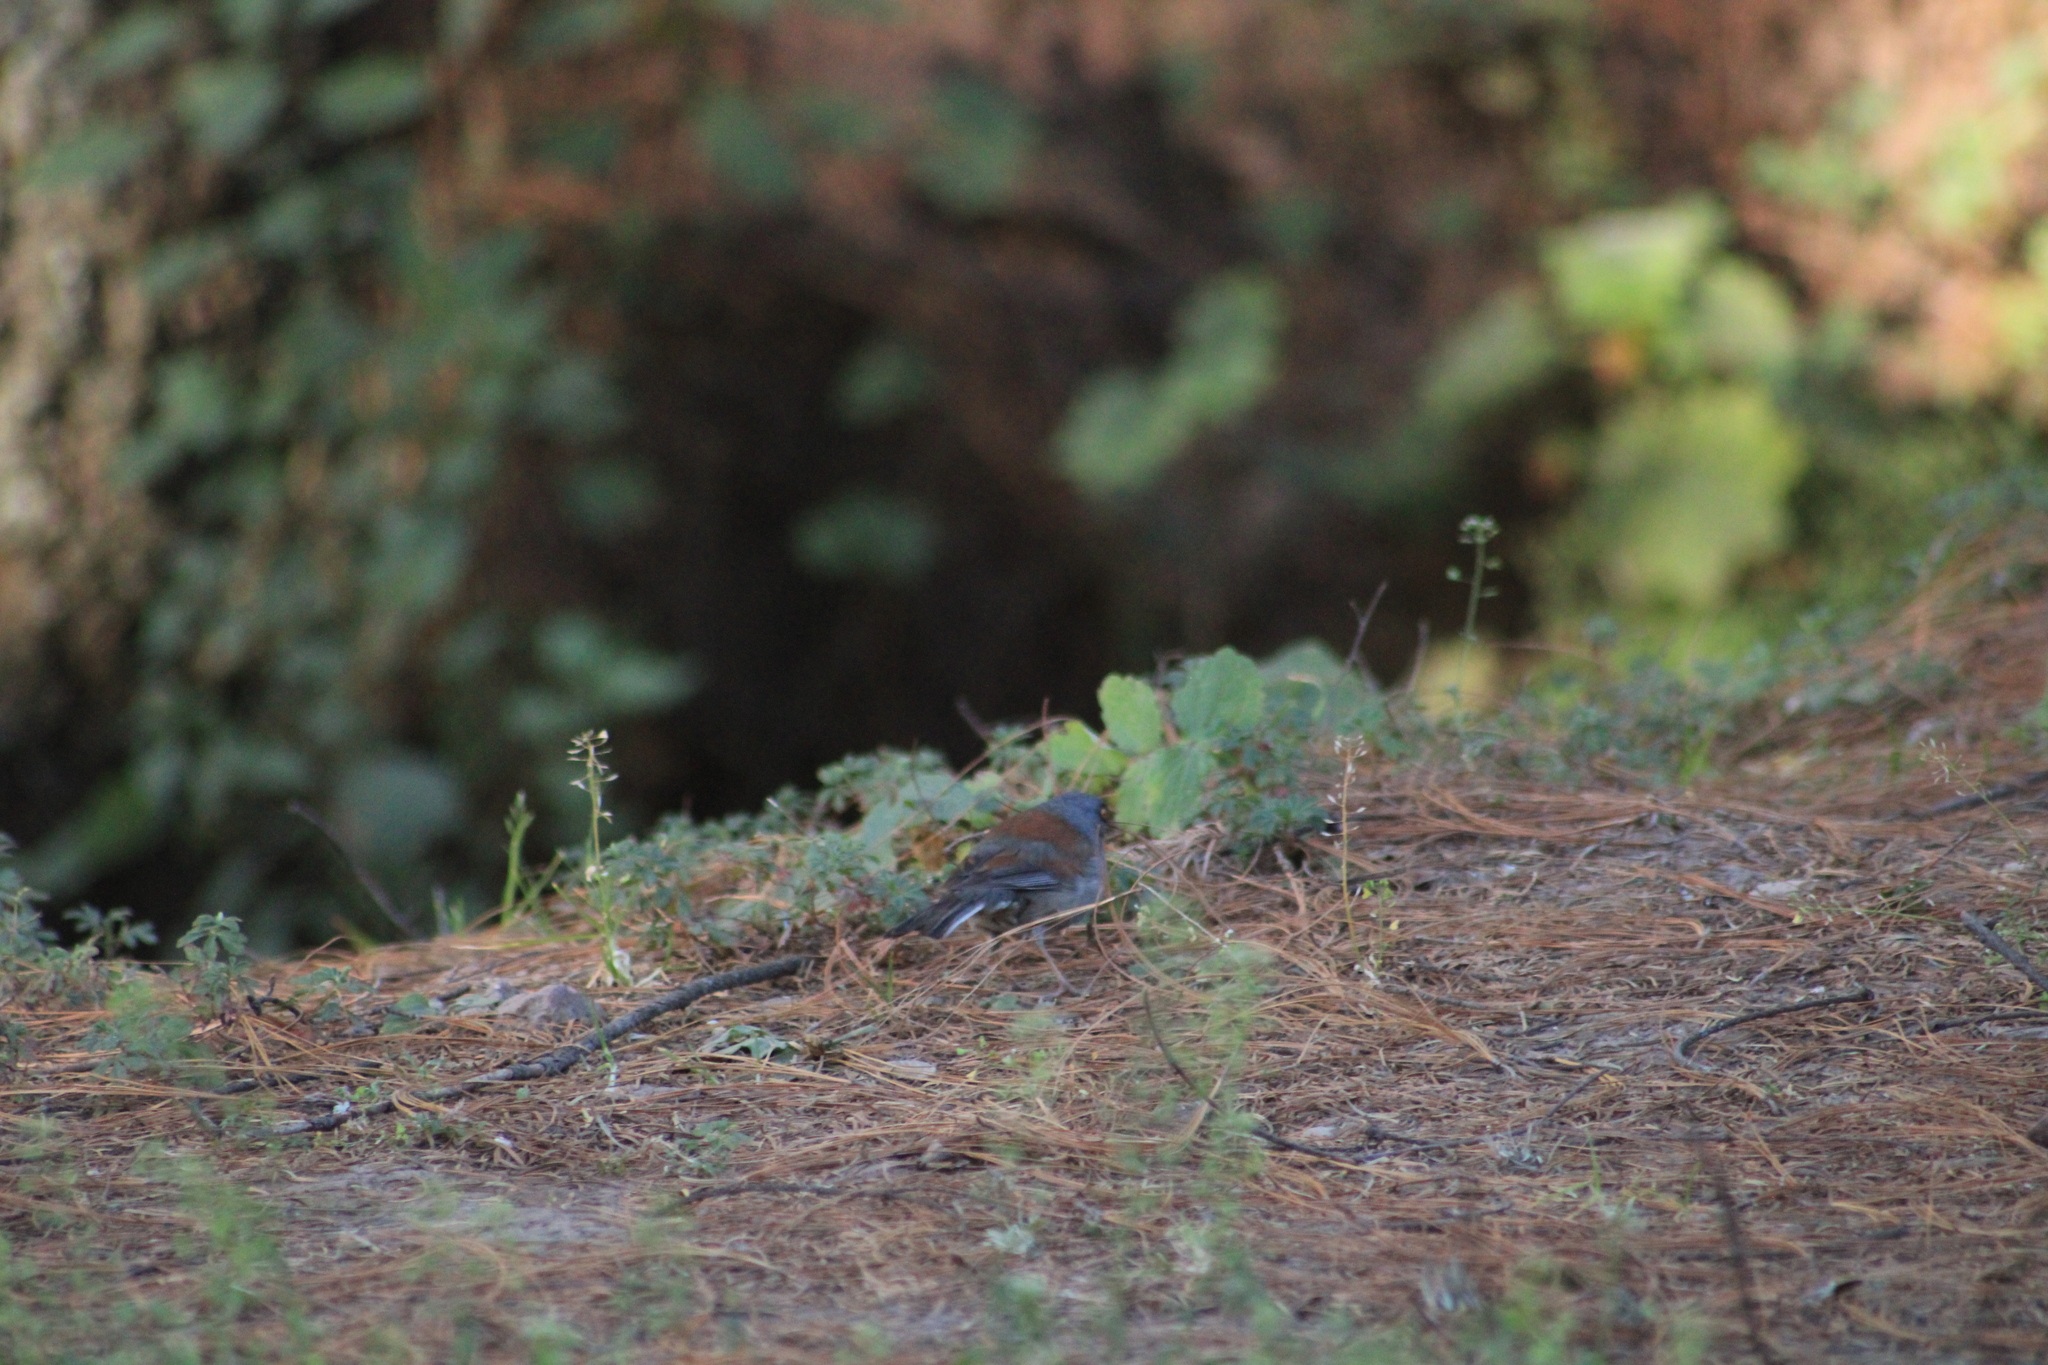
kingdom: Animalia
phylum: Chordata
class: Aves
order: Passeriformes
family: Passerellidae
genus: Junco
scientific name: Junco phaeonotus
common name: Yellow-eyed junco
